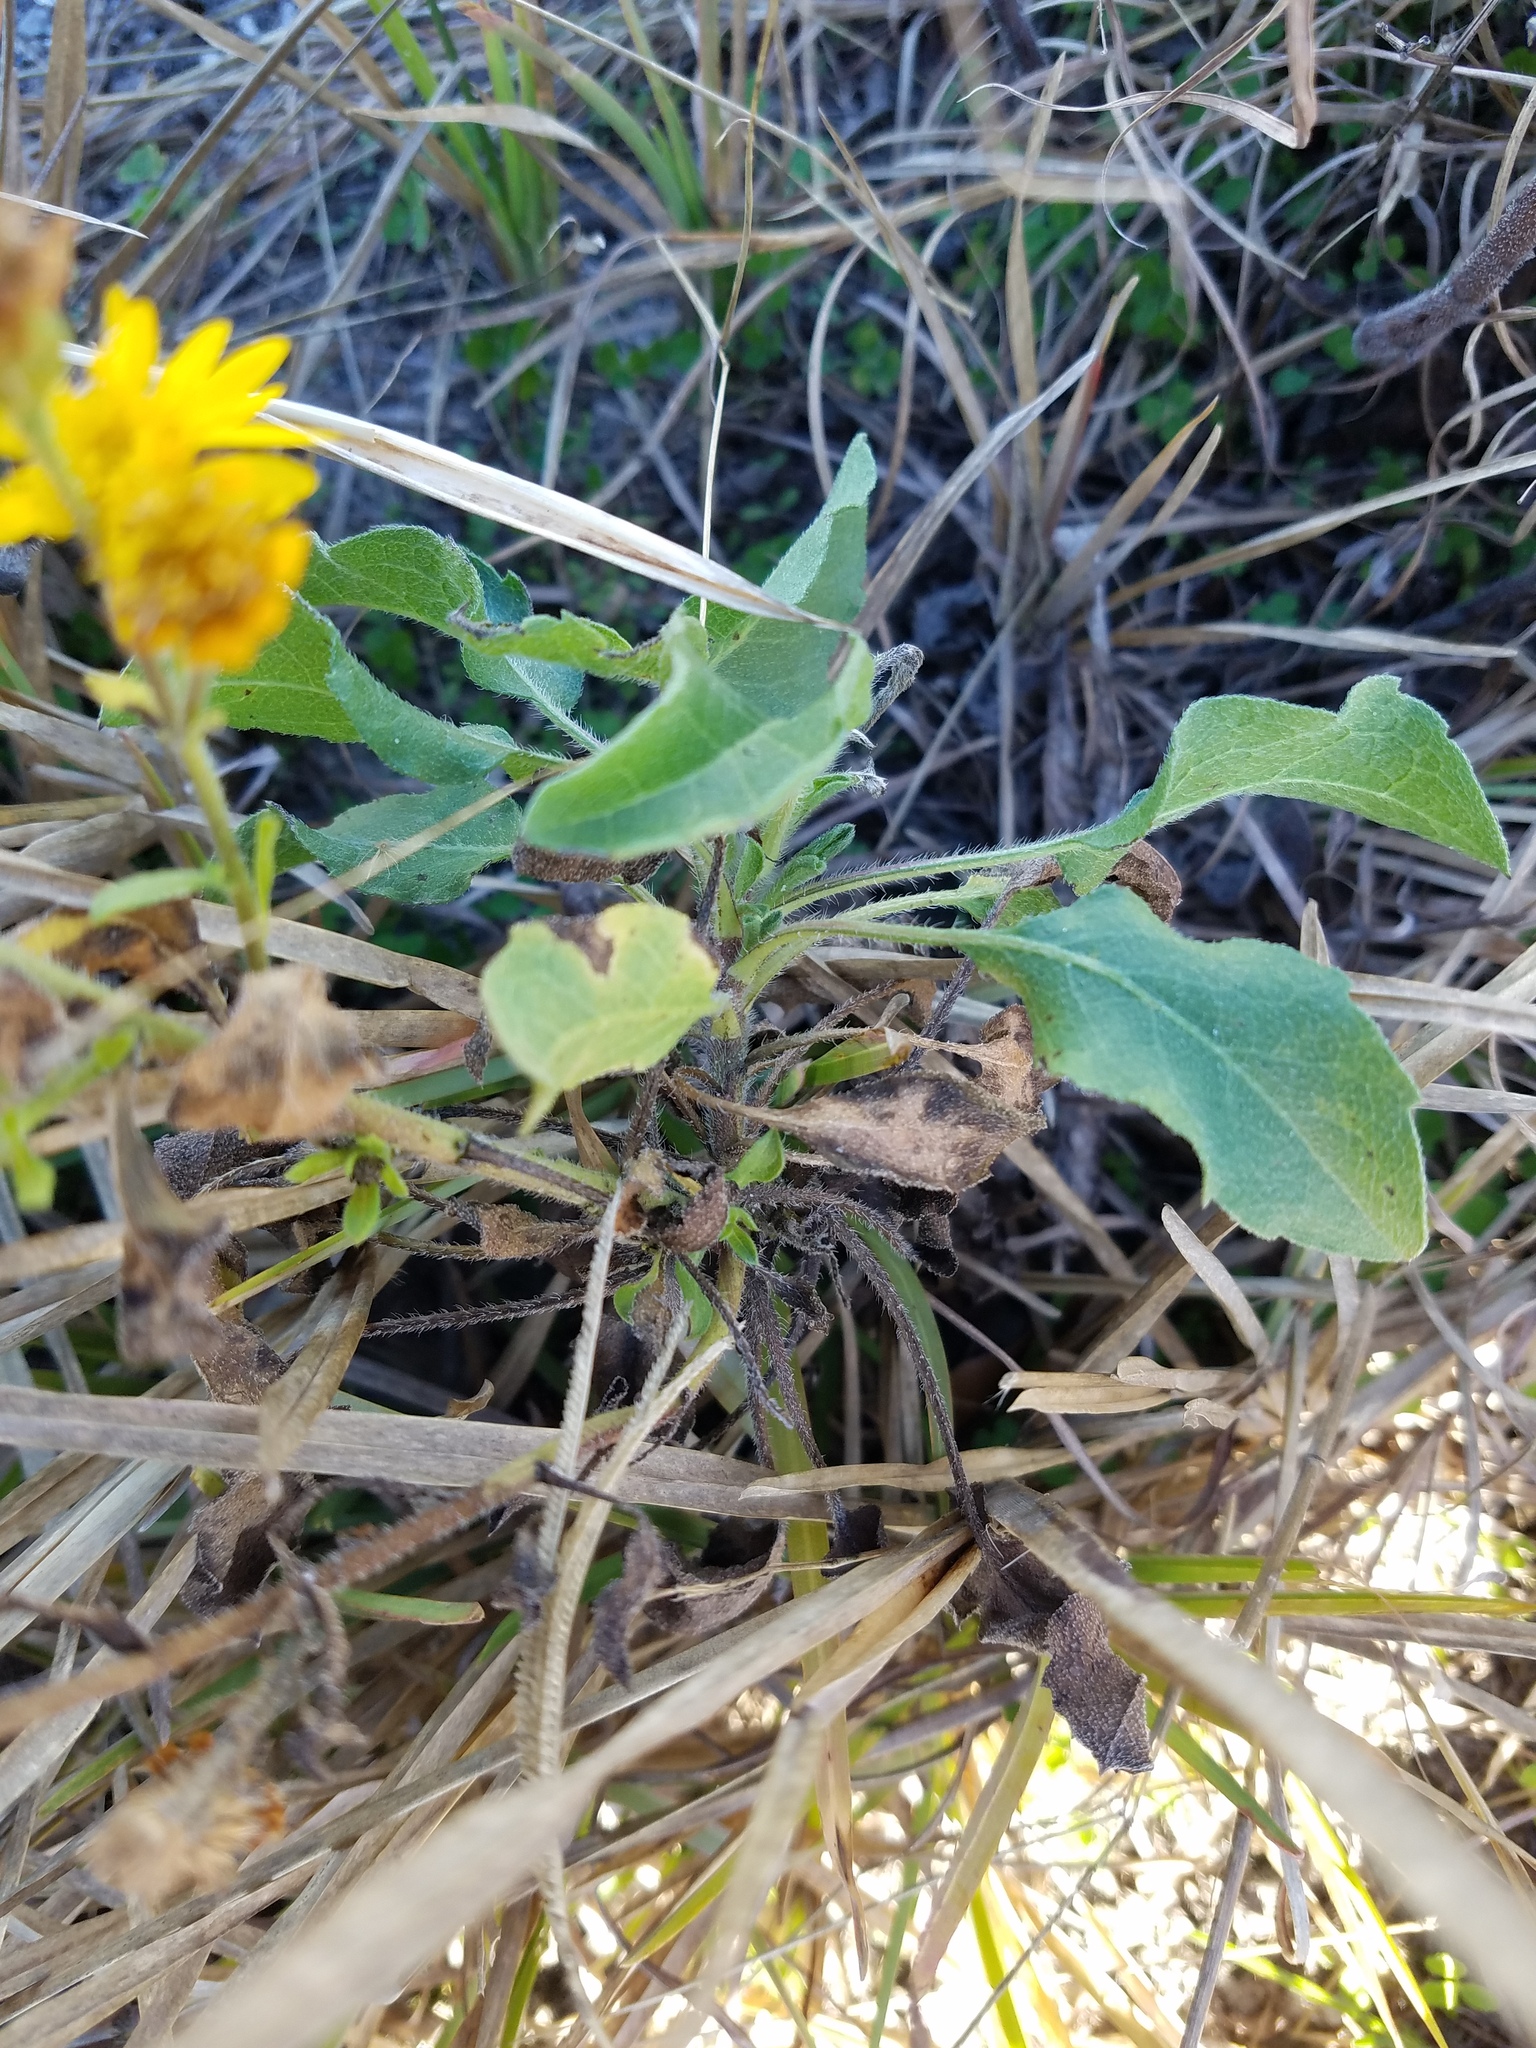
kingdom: Plantae
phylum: Tracheophyta
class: Magnoliopsida
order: Asterales
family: Asteraceae
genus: Heterotheca
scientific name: Heterotheca subaxillaris
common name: Camphorweed
